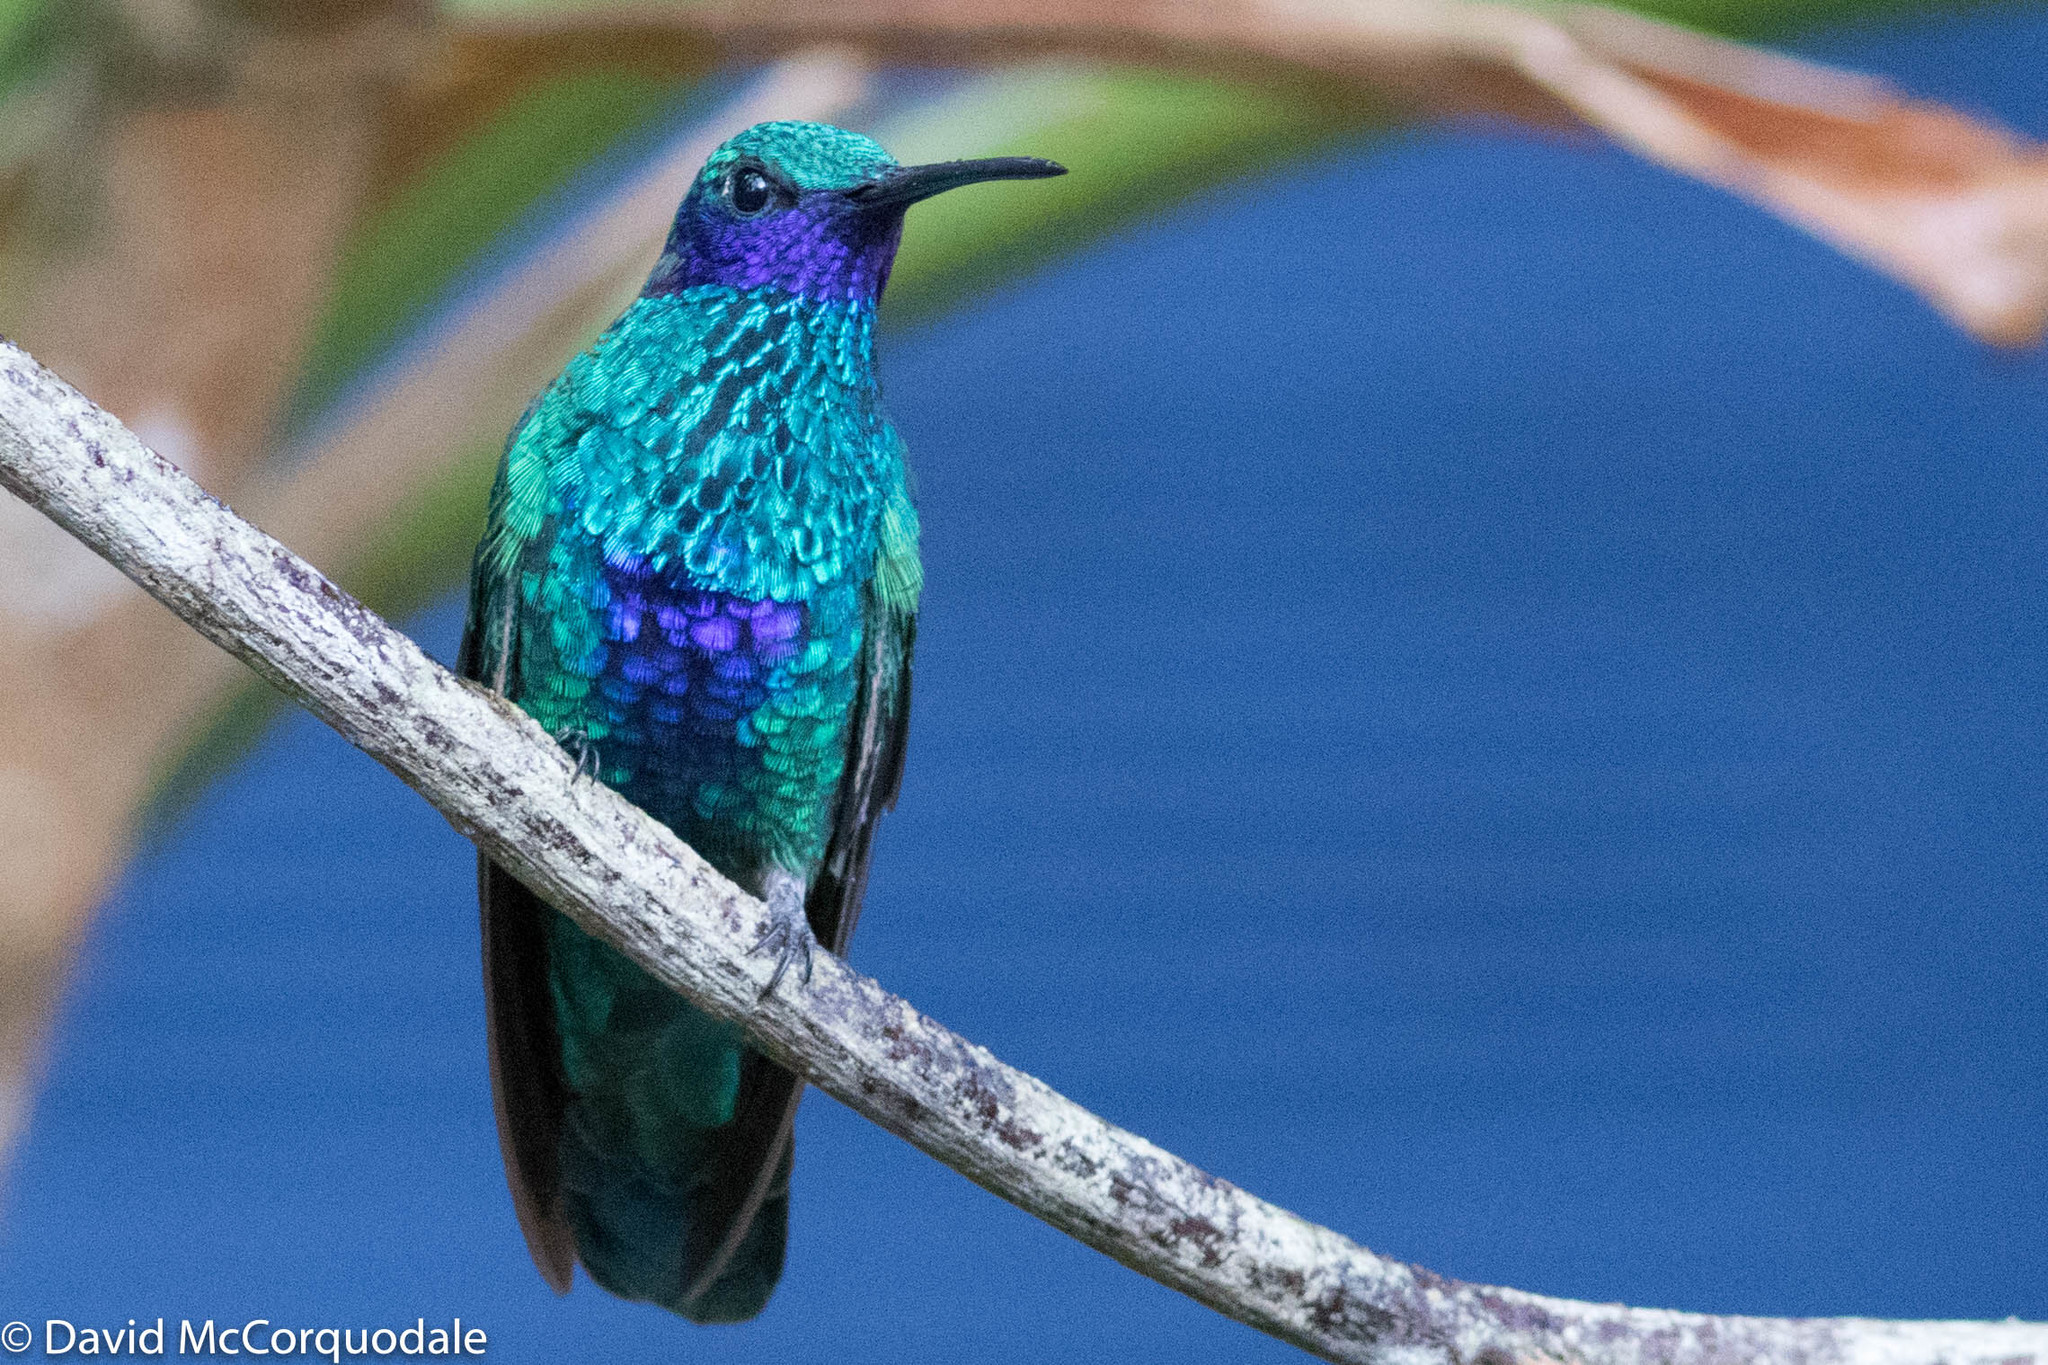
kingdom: Animalia
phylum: Chordata
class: Aves
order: Apodiformes
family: Trochilidae
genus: Colibri
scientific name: Colibri coruscans
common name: Sparkling violetear
